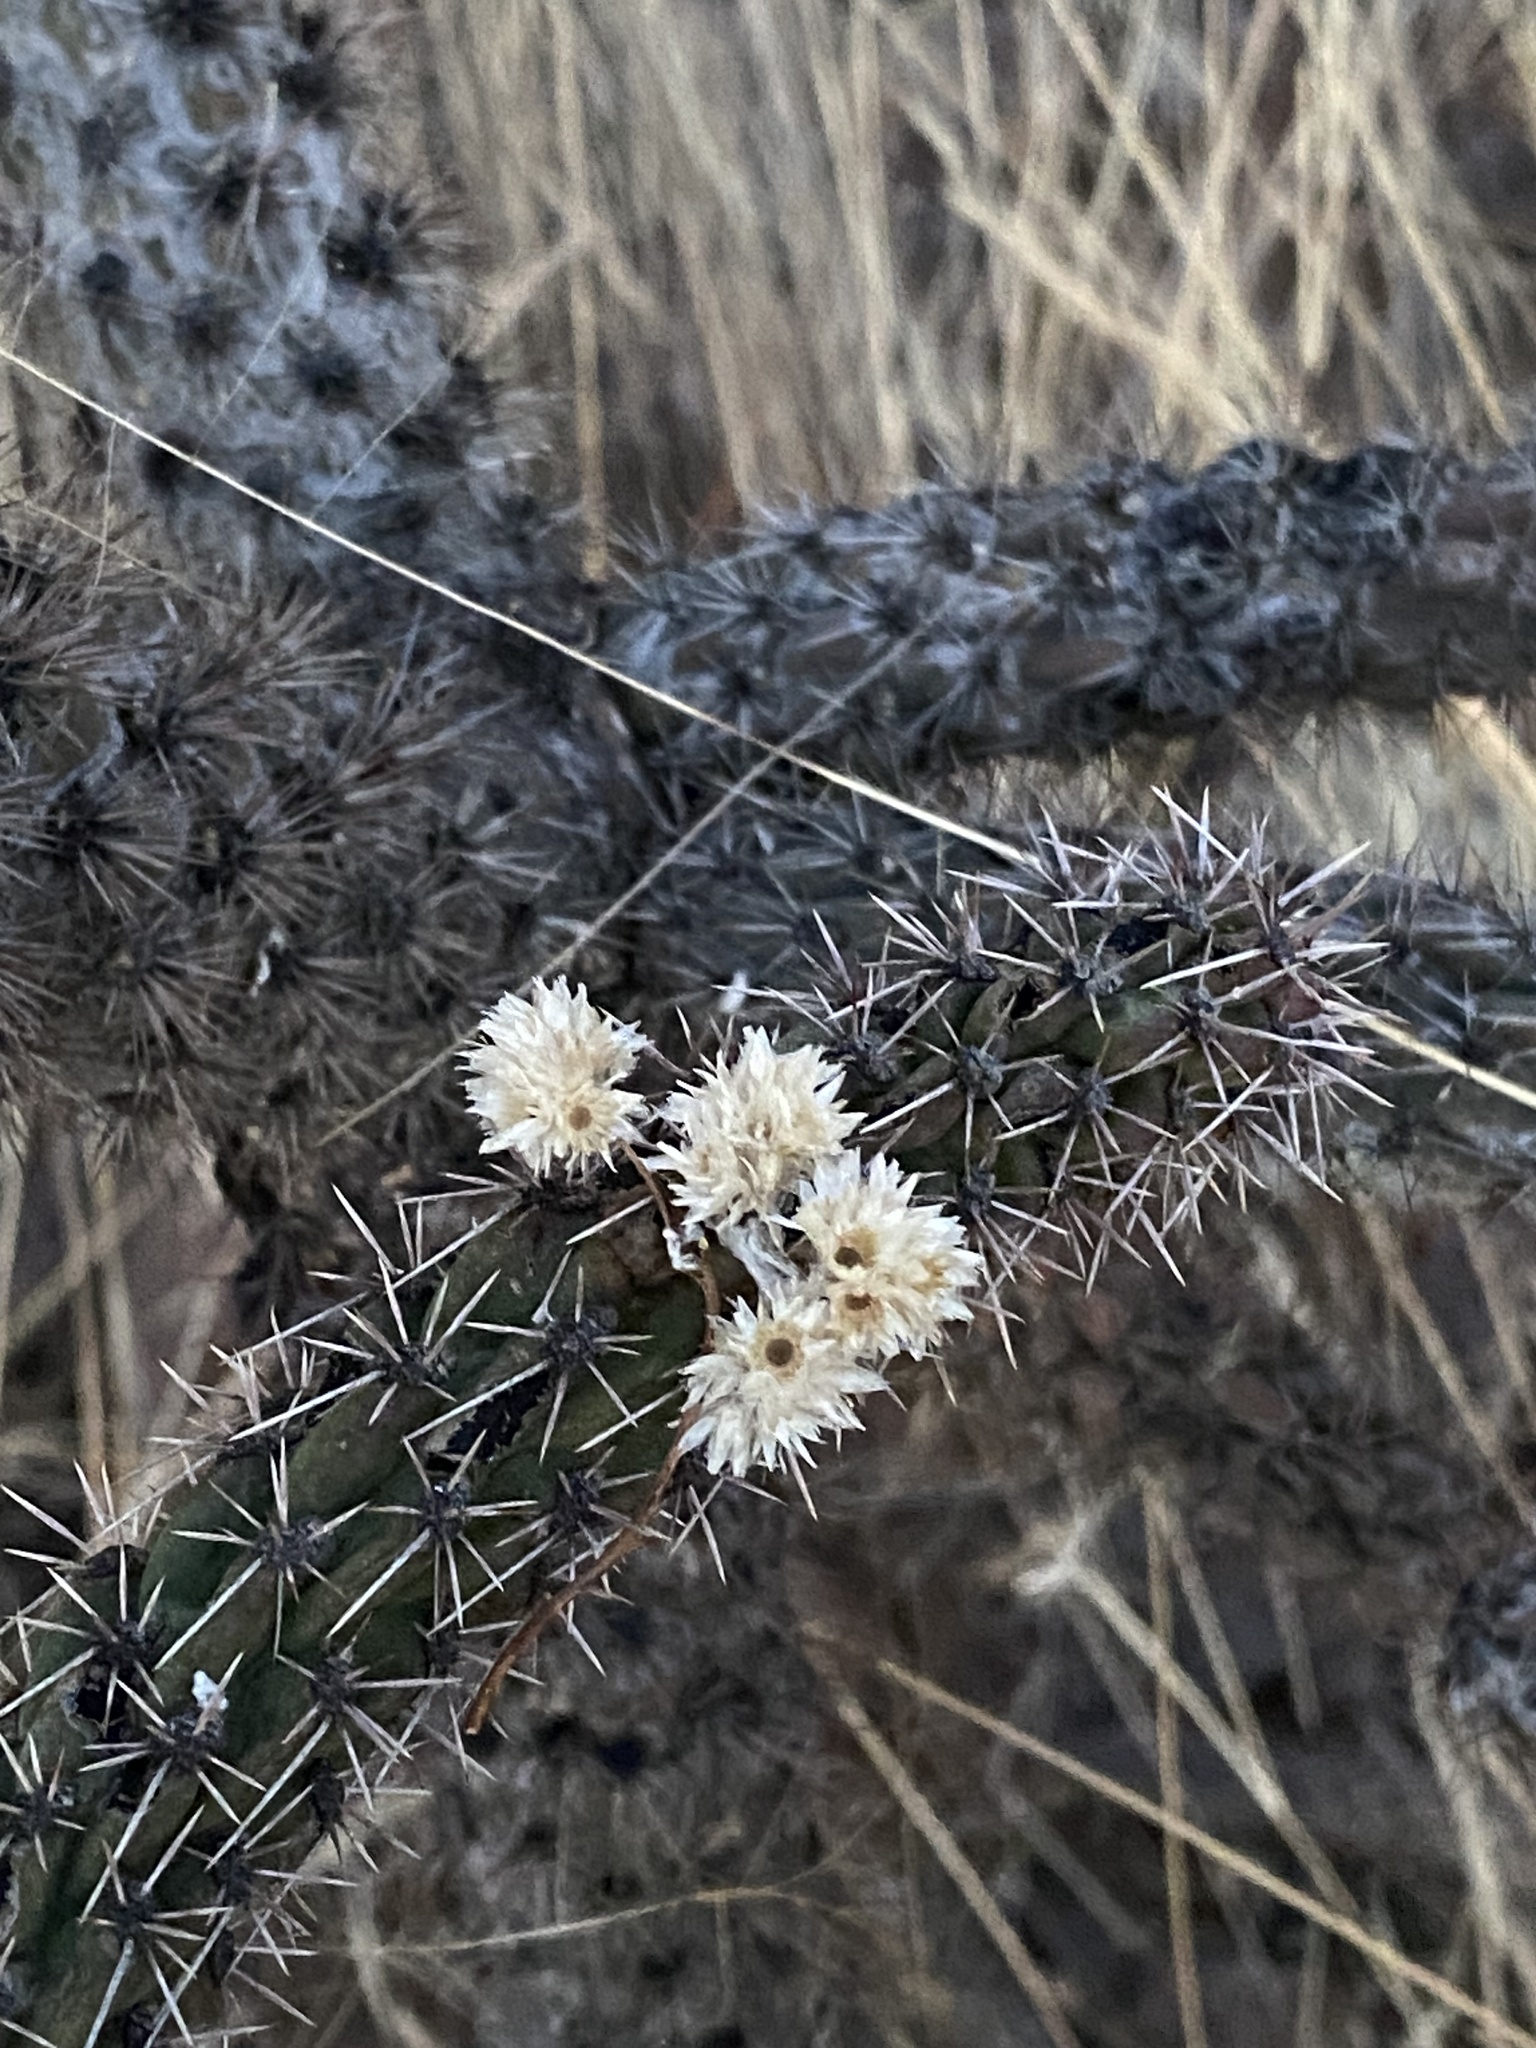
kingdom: Plantae
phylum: Tracheophyta
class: Magnoliopsida
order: Caryophyllales
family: Cactaceae
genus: Cylindropuntia
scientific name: Cylindropuntia imbricata
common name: Candelabrum cactus
